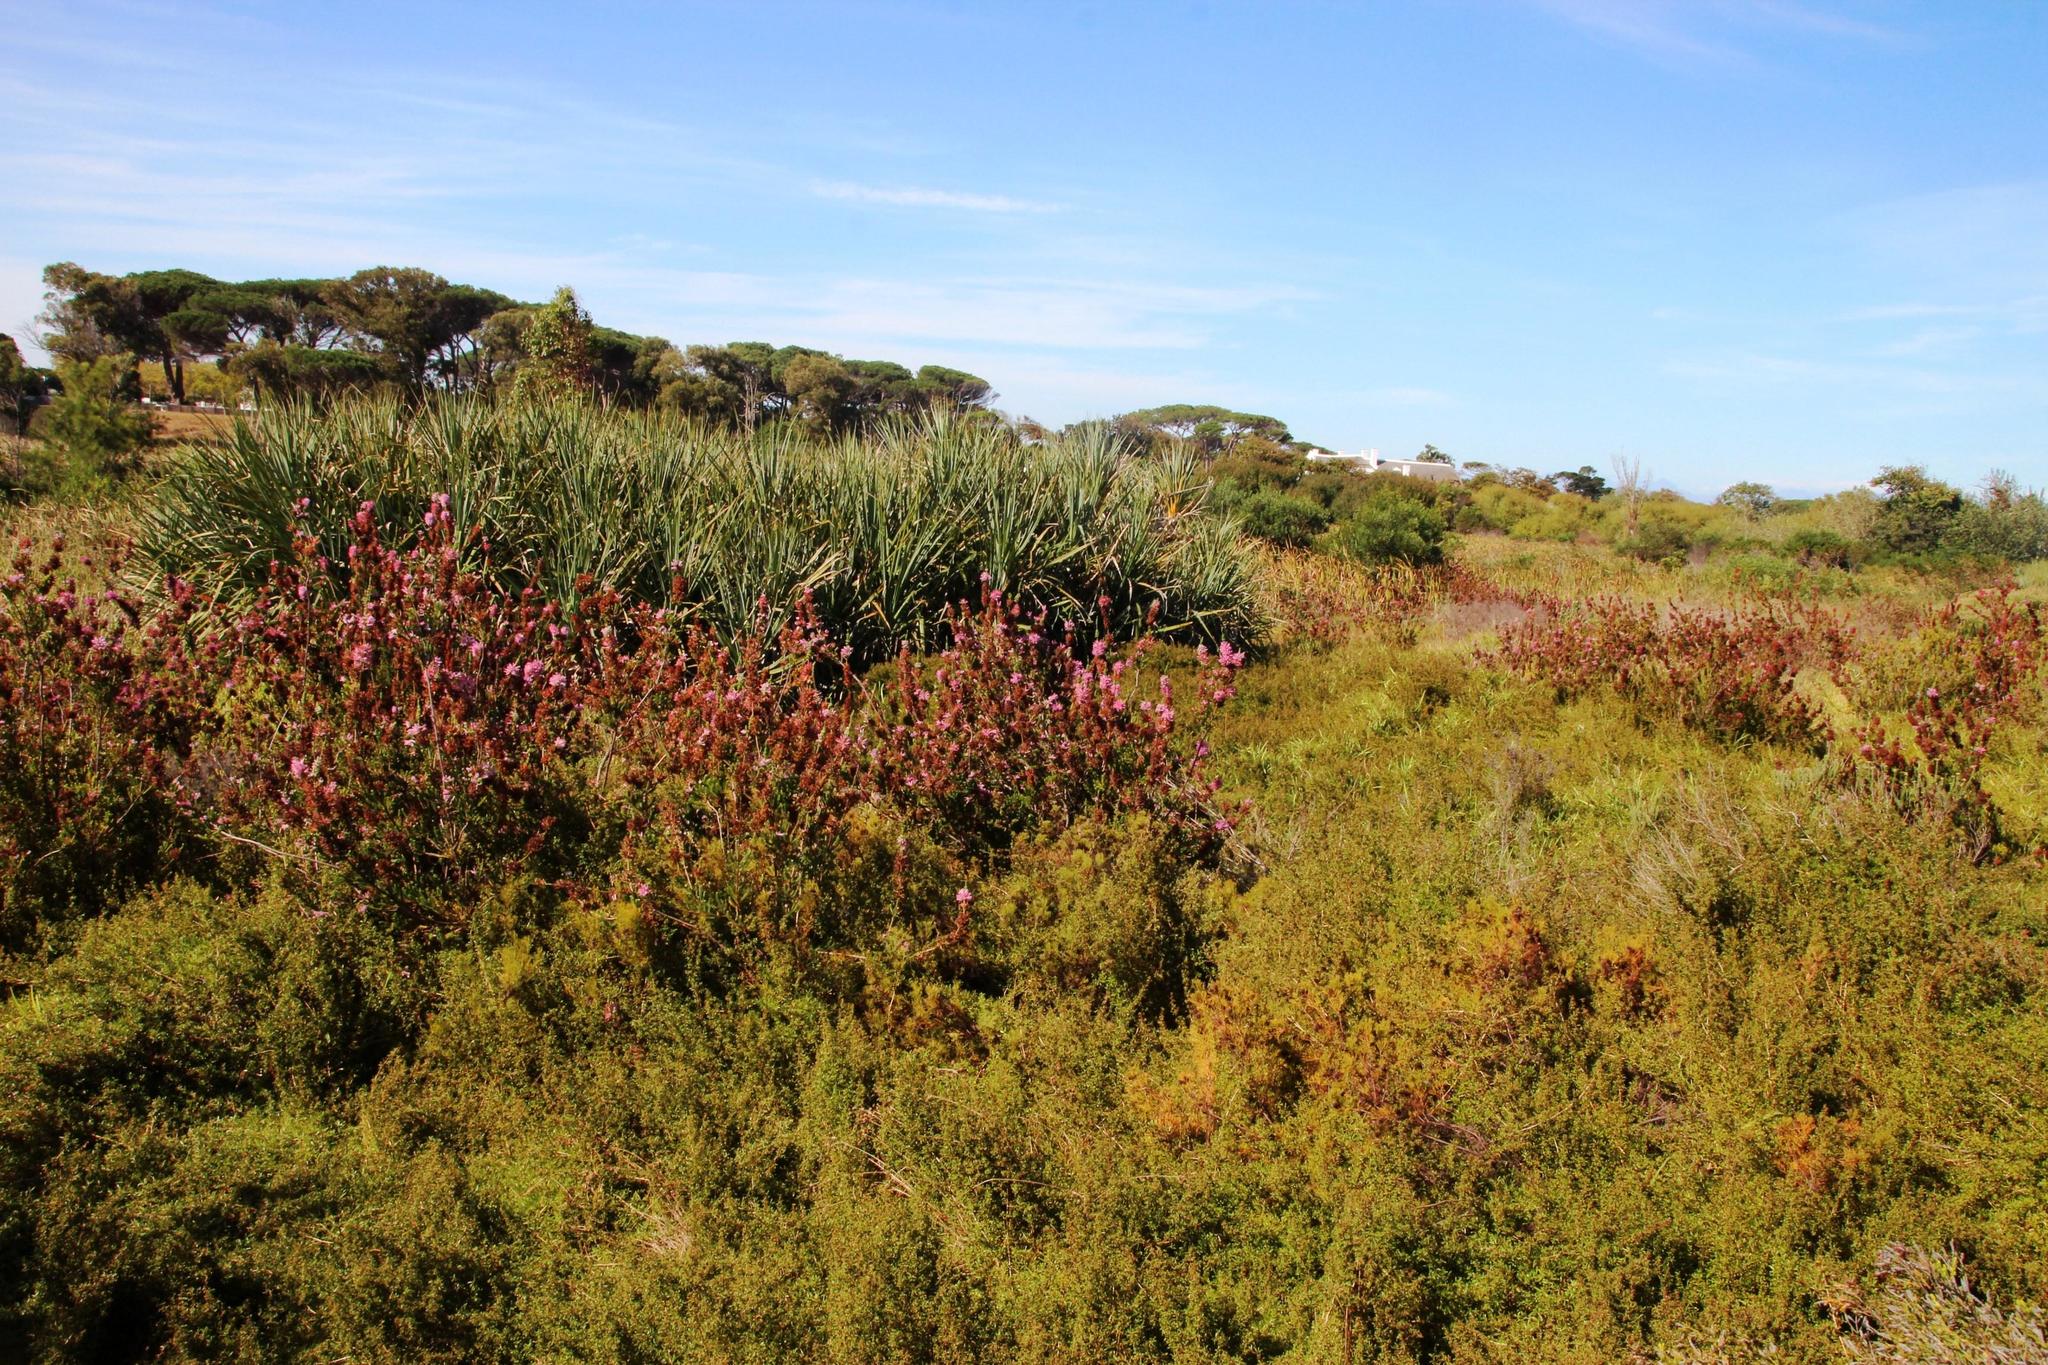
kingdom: Plantae
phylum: Tracheophyta
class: Magnoliopsida
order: Ericales
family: Ericaceae
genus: Erica
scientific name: Erica verticillata
